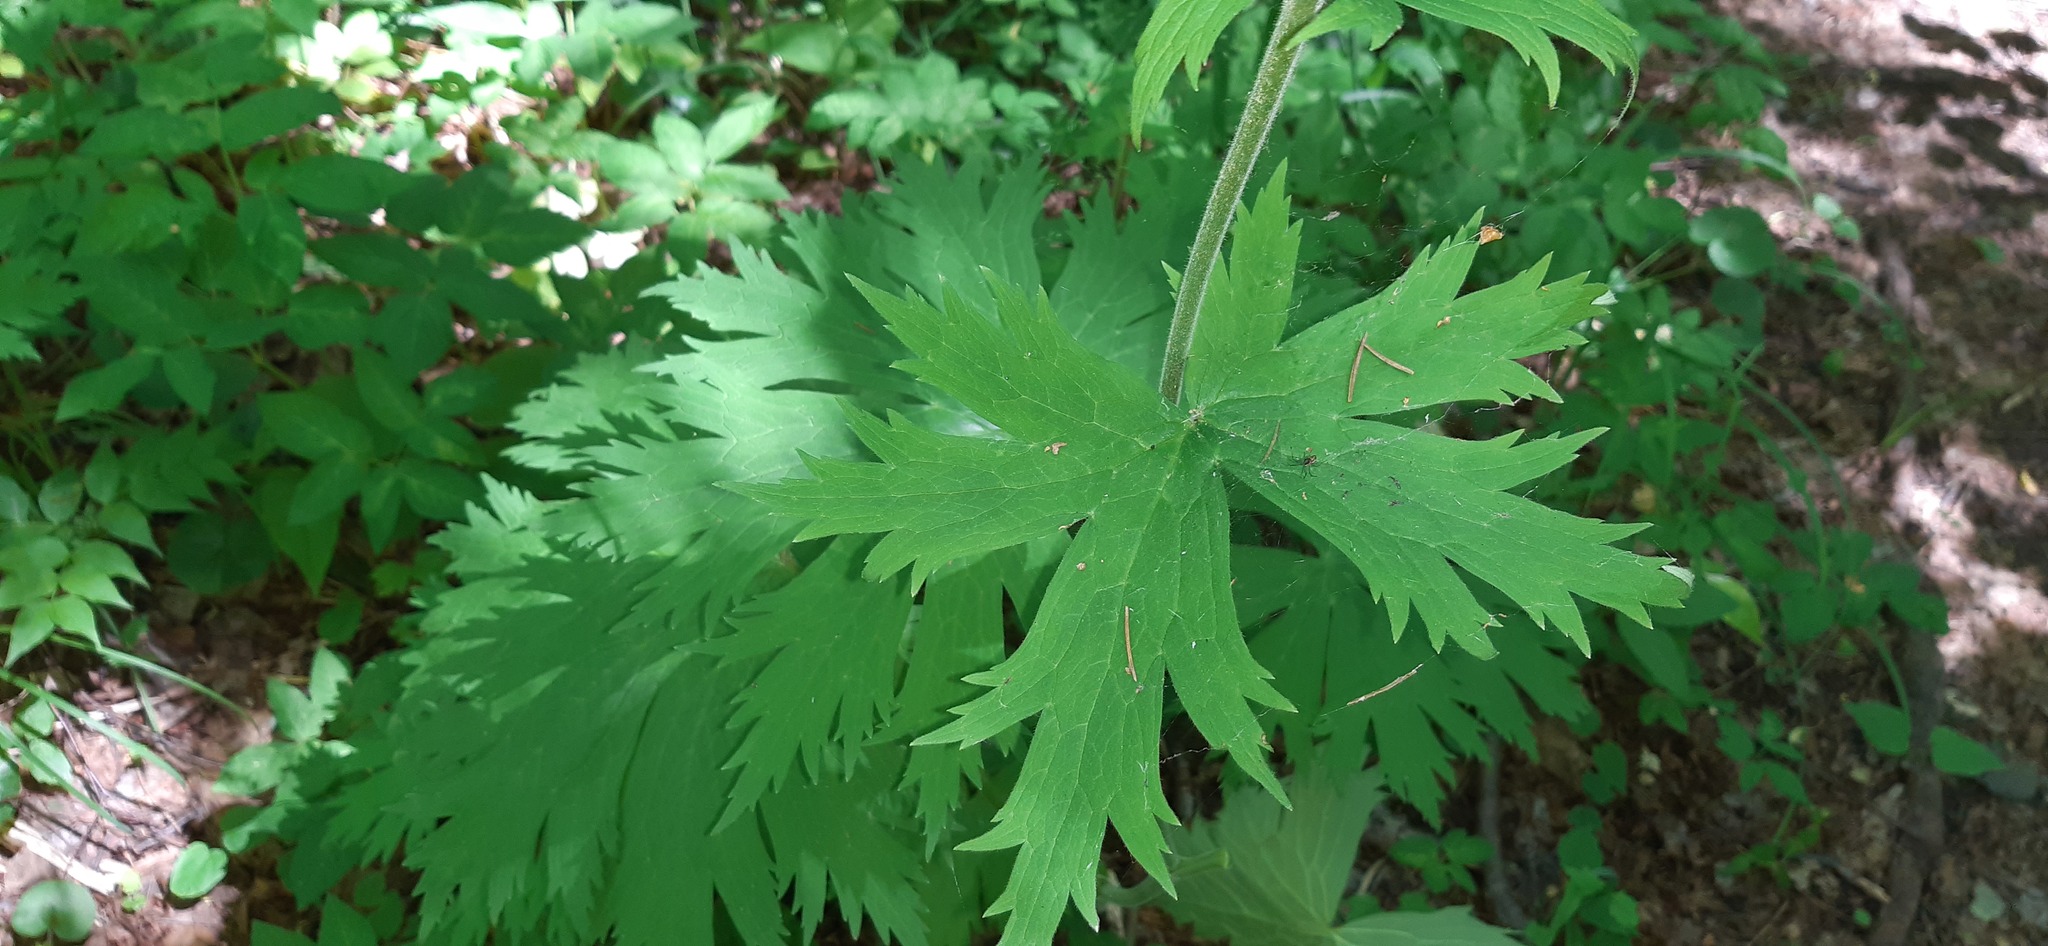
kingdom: Plantae
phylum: Tracheophyta
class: Magnoliopsida
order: Ranunculales
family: Ranunculaceae
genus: Aconitum
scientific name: Aconitum septentrionale
